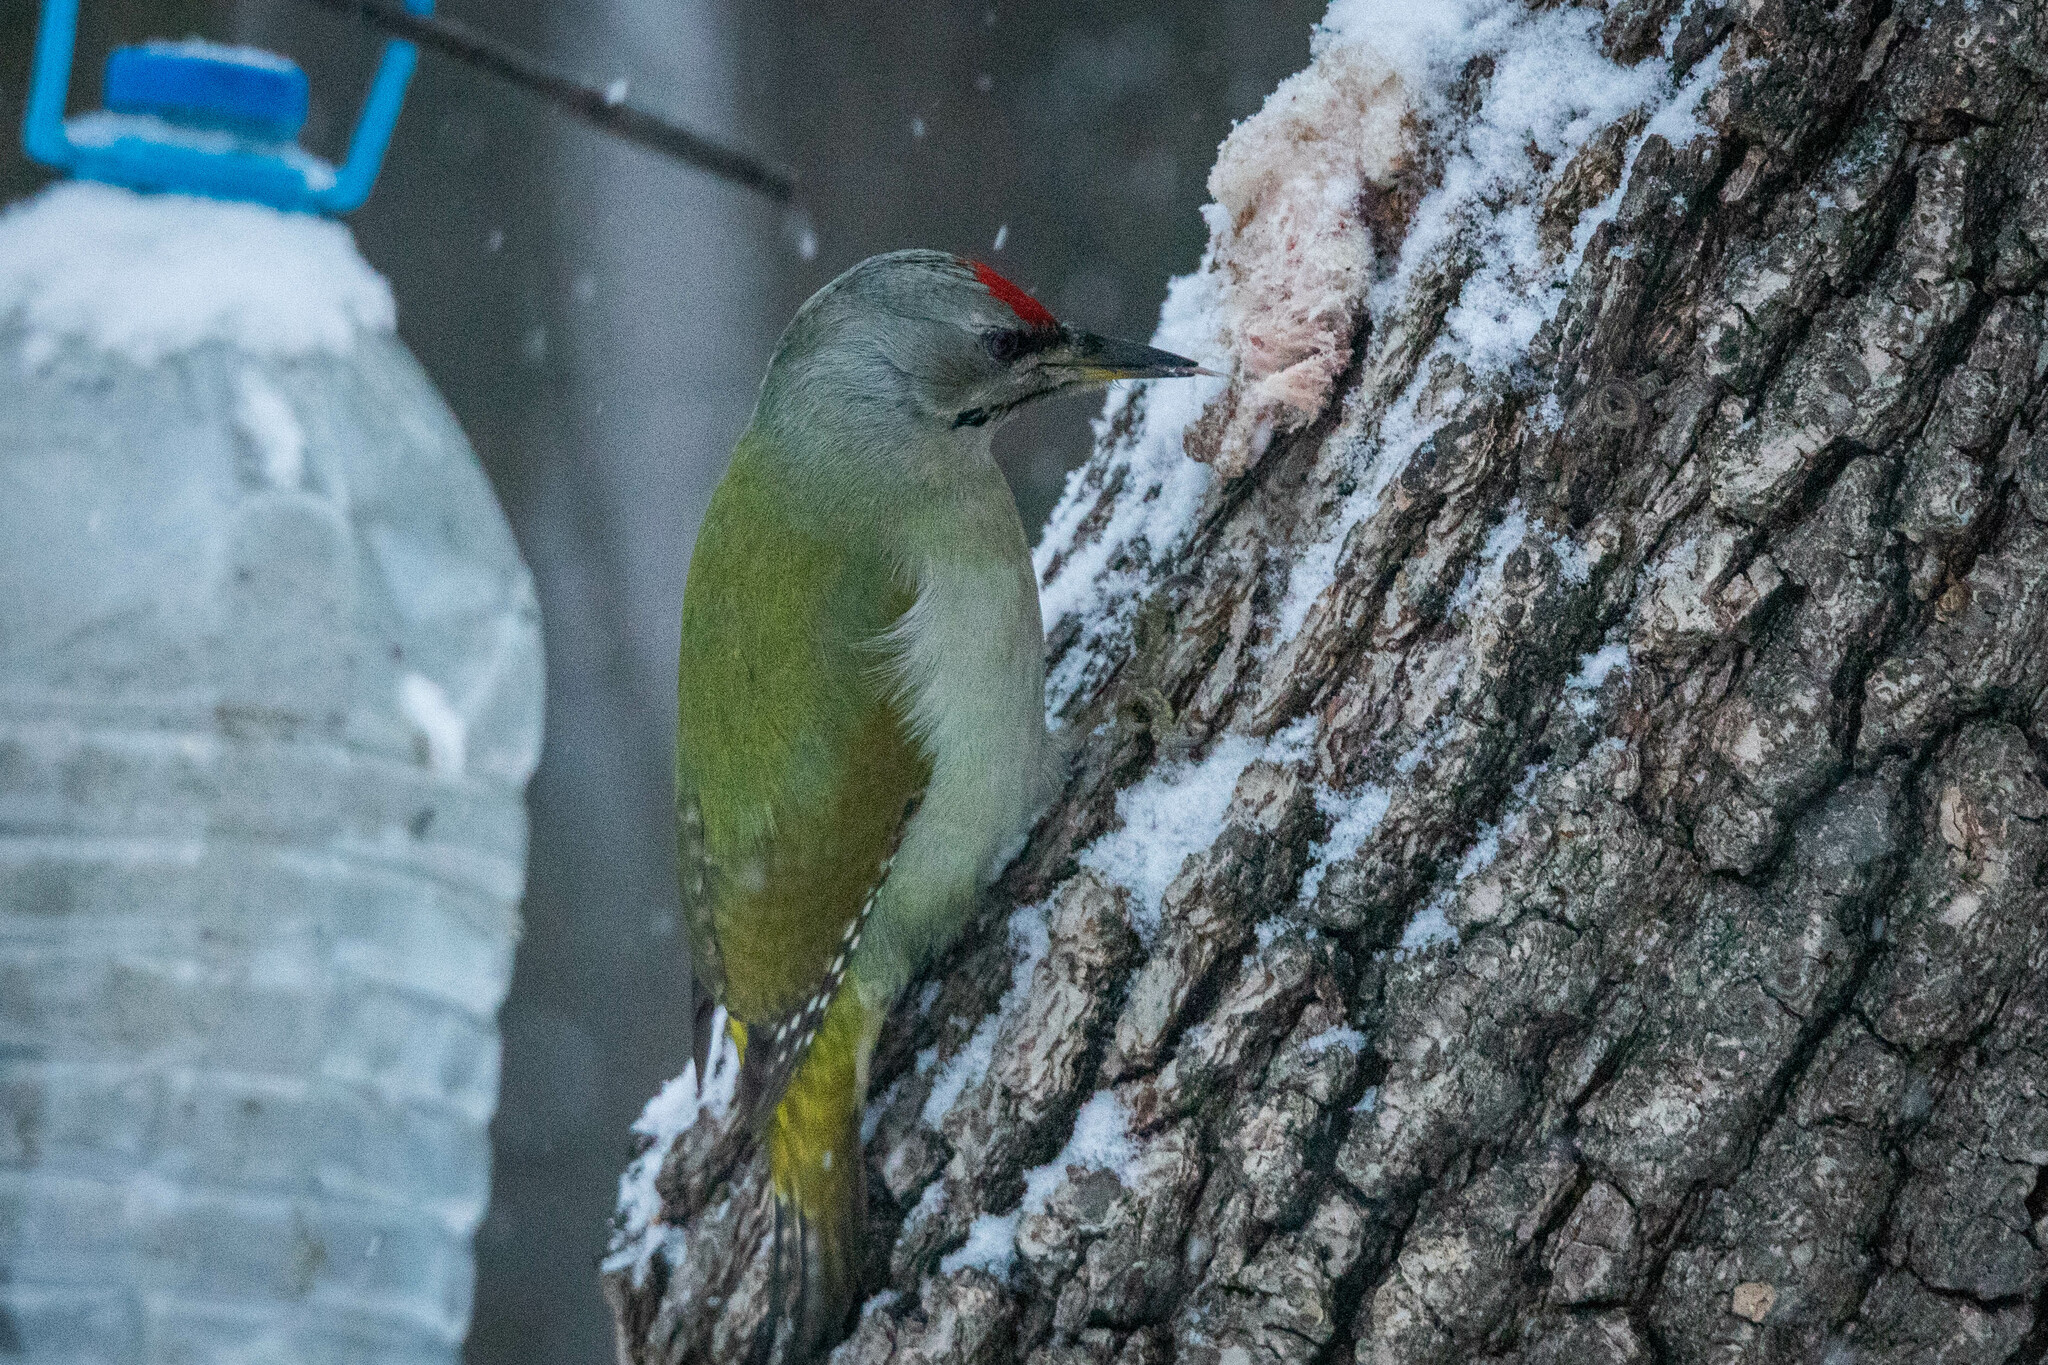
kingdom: Animalia
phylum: Chordata
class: Aves
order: Piciformes
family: Picidae
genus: Picus
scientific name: Picus canus
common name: Grey-headed woodpecker
